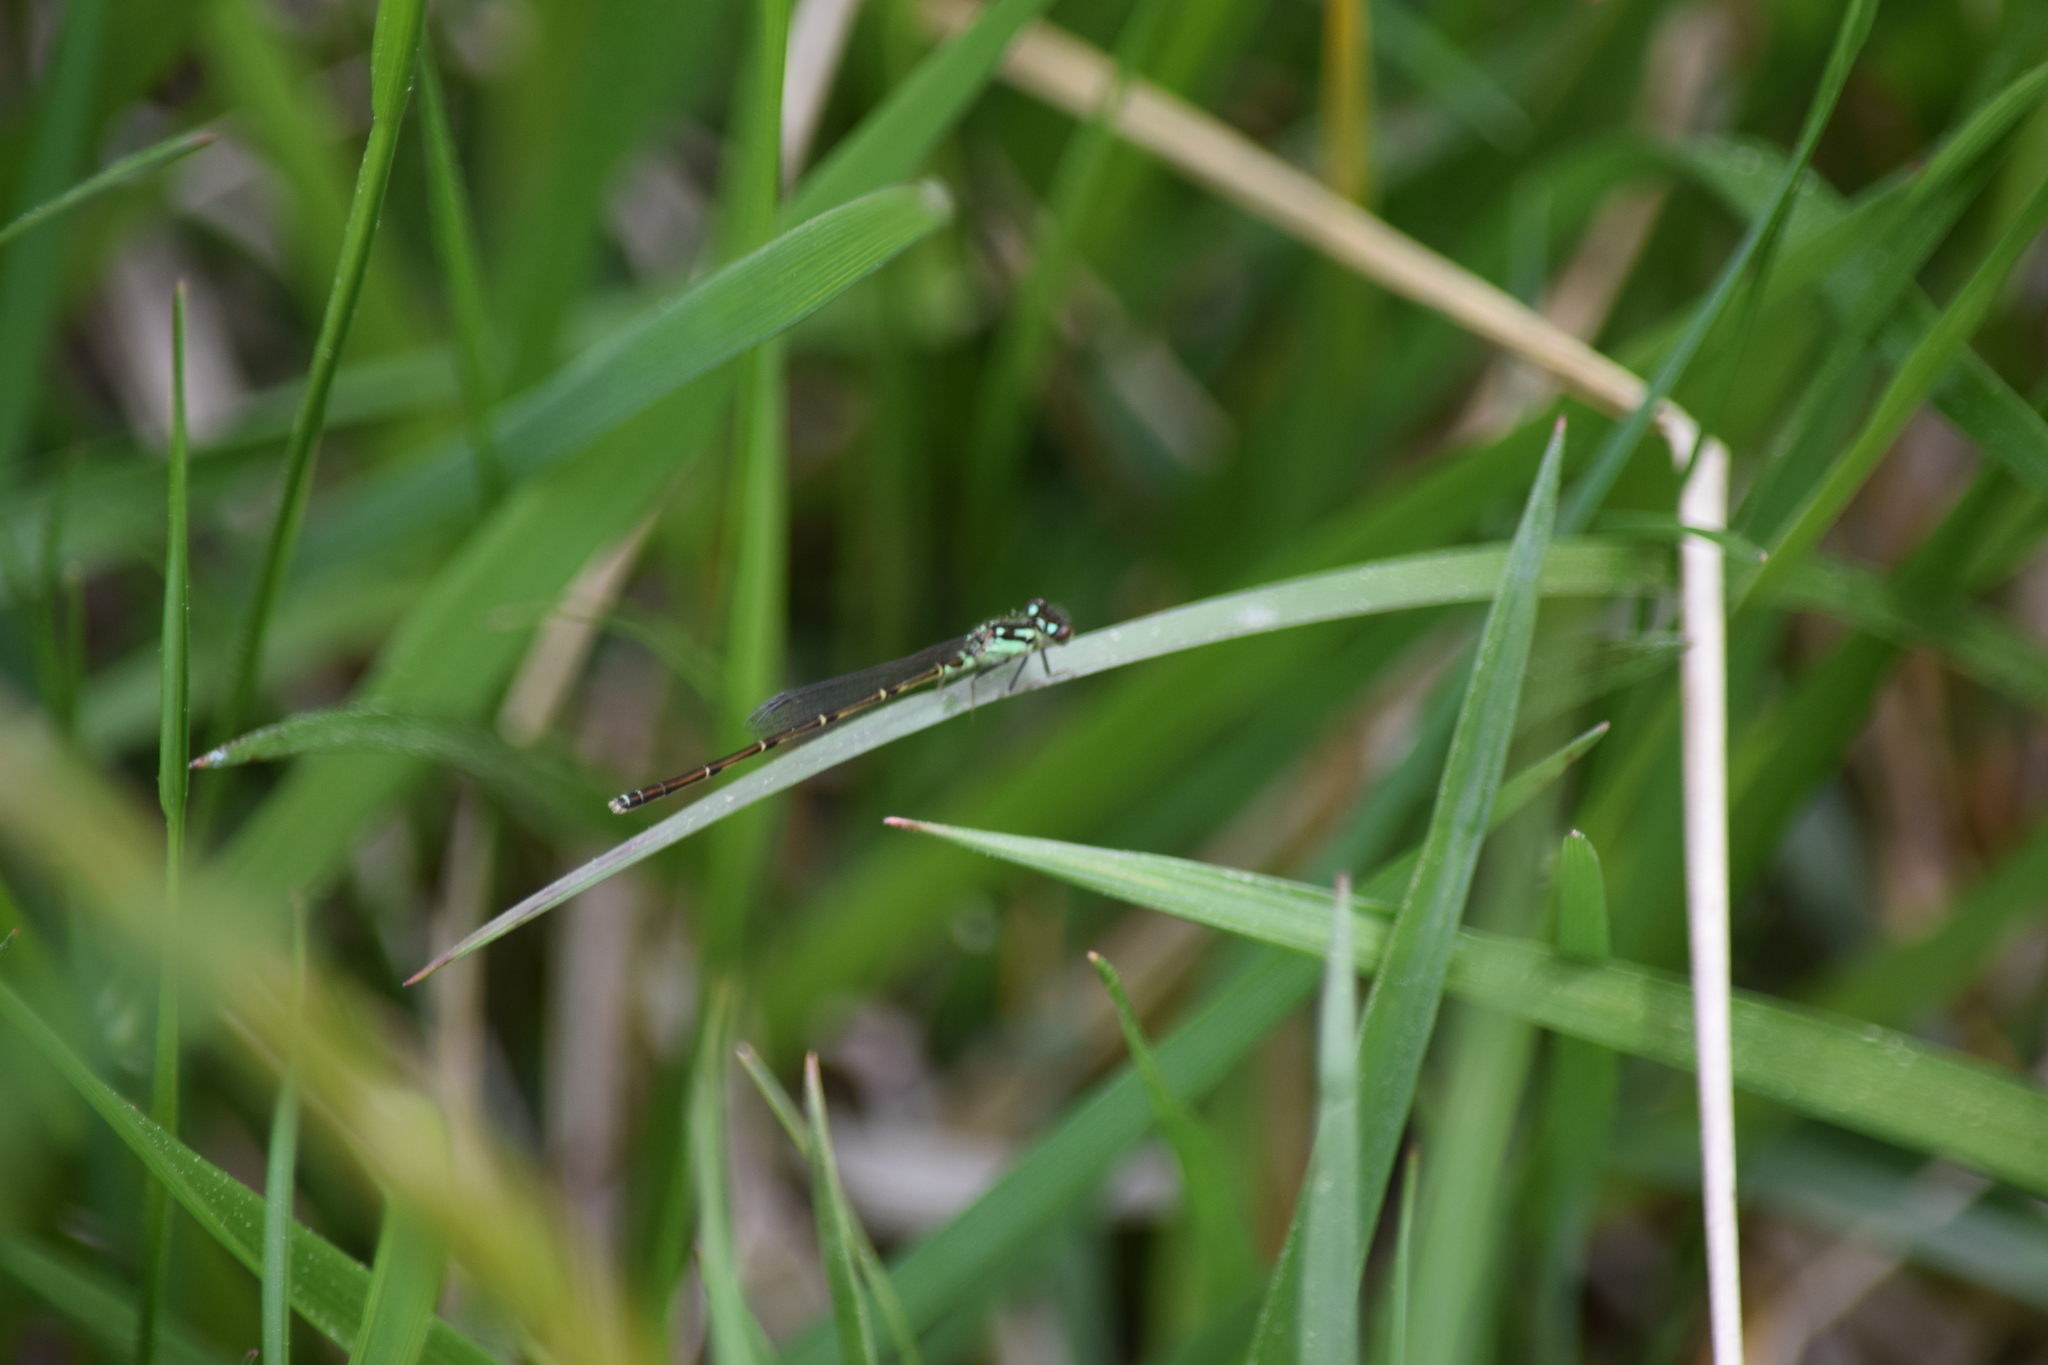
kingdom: Animalia
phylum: Arthropoda
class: Insecta
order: Odonata
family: Coenagrionidae
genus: Ischnura
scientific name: Ischnura posita
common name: Fragile forktail
